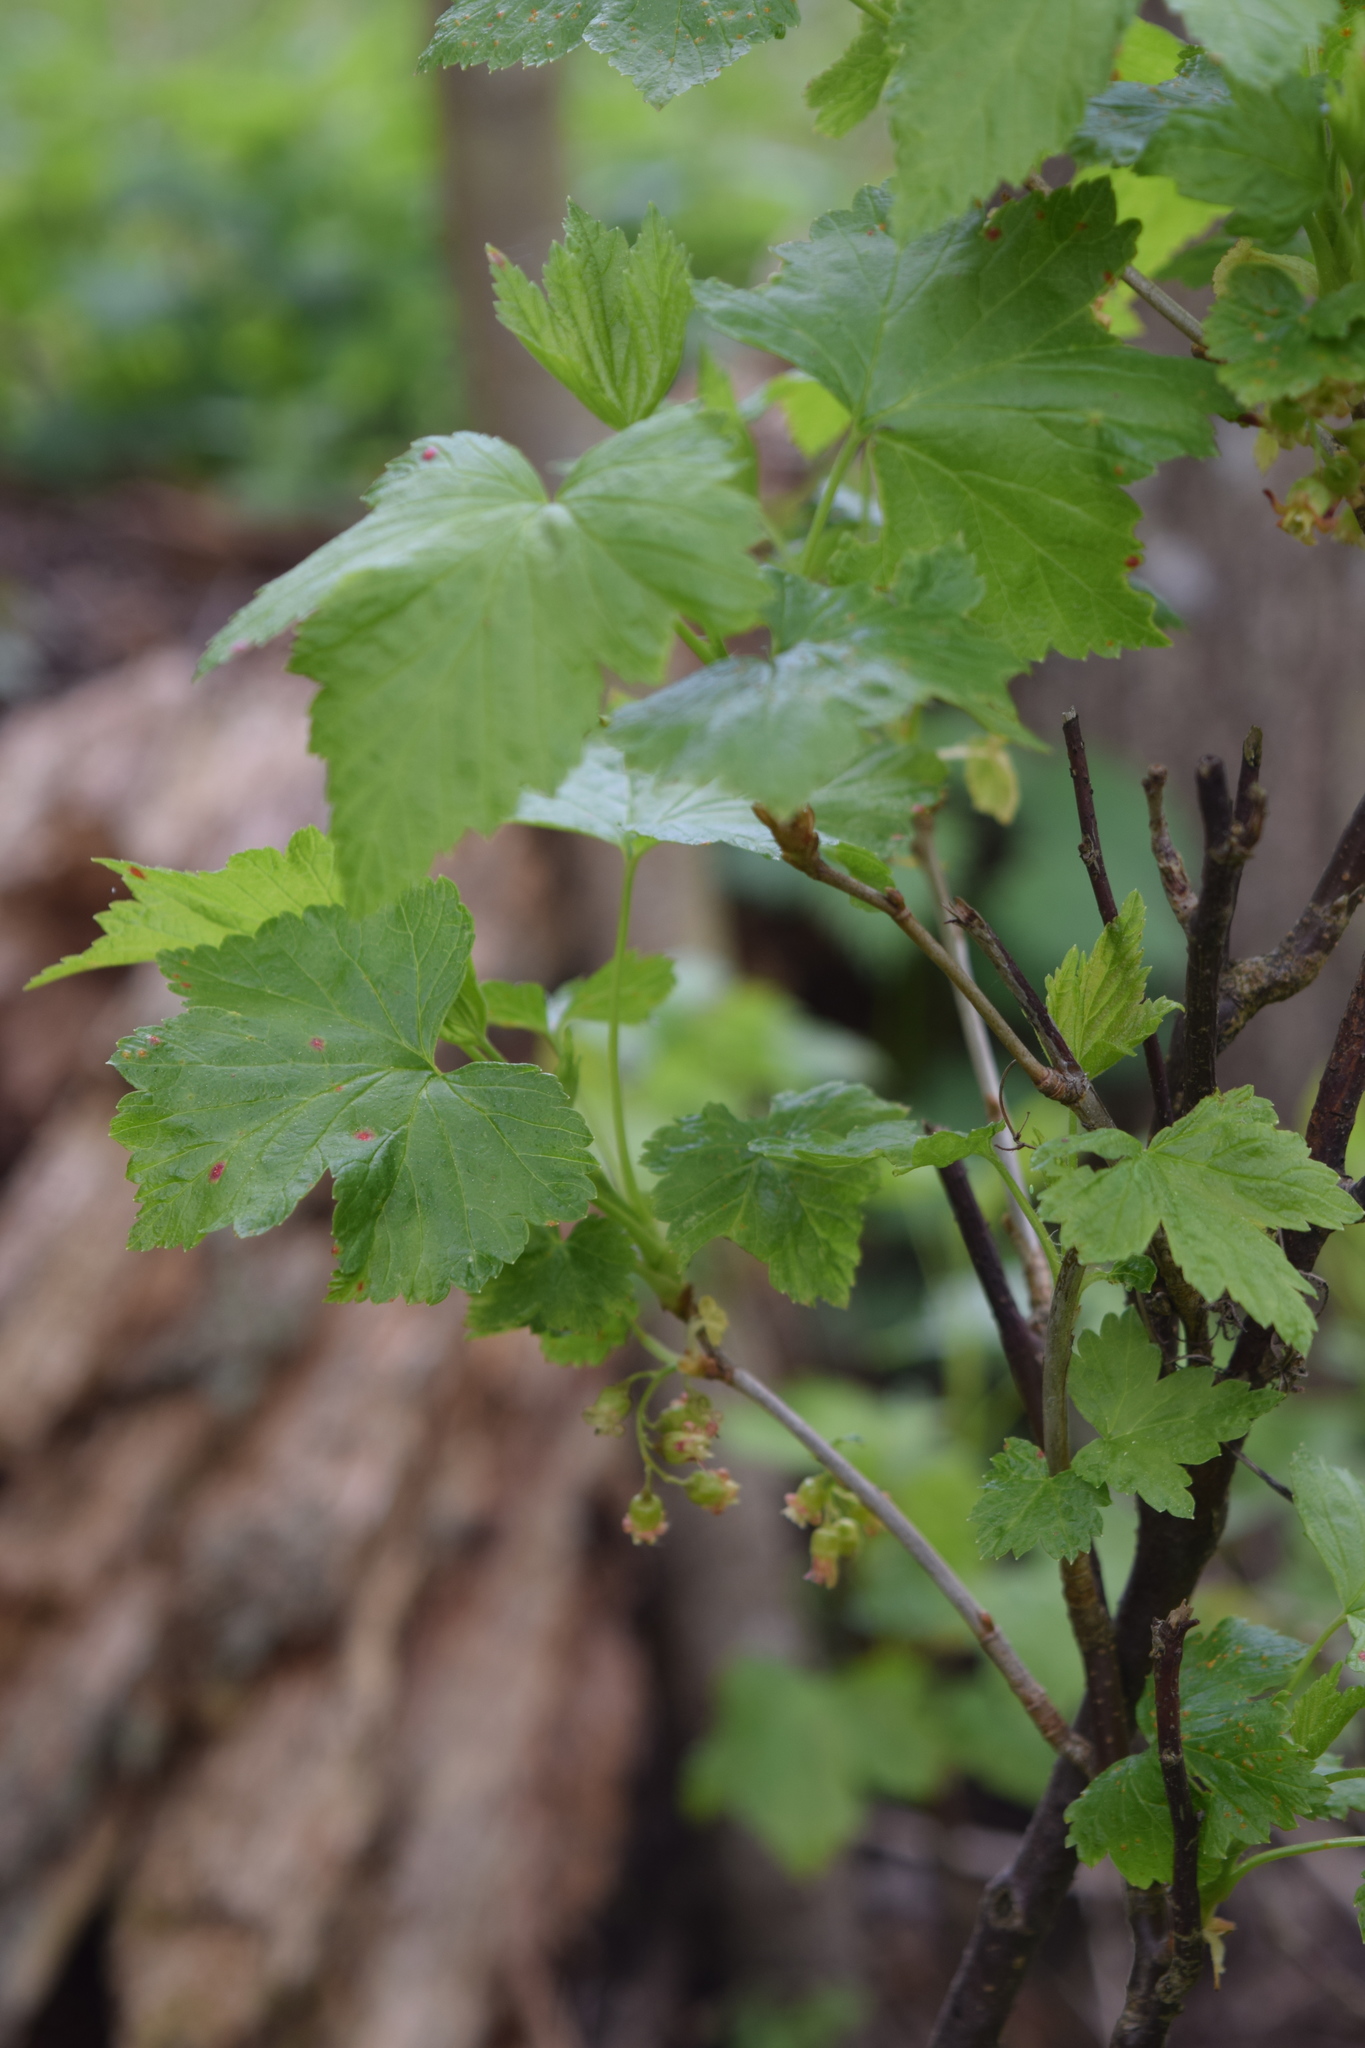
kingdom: Plantae
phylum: Tracheophyta
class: Magnoliopsida
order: Saxifragales
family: Grossulariaceae
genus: Ribes
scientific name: Ribes nigrum
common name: Black currant
